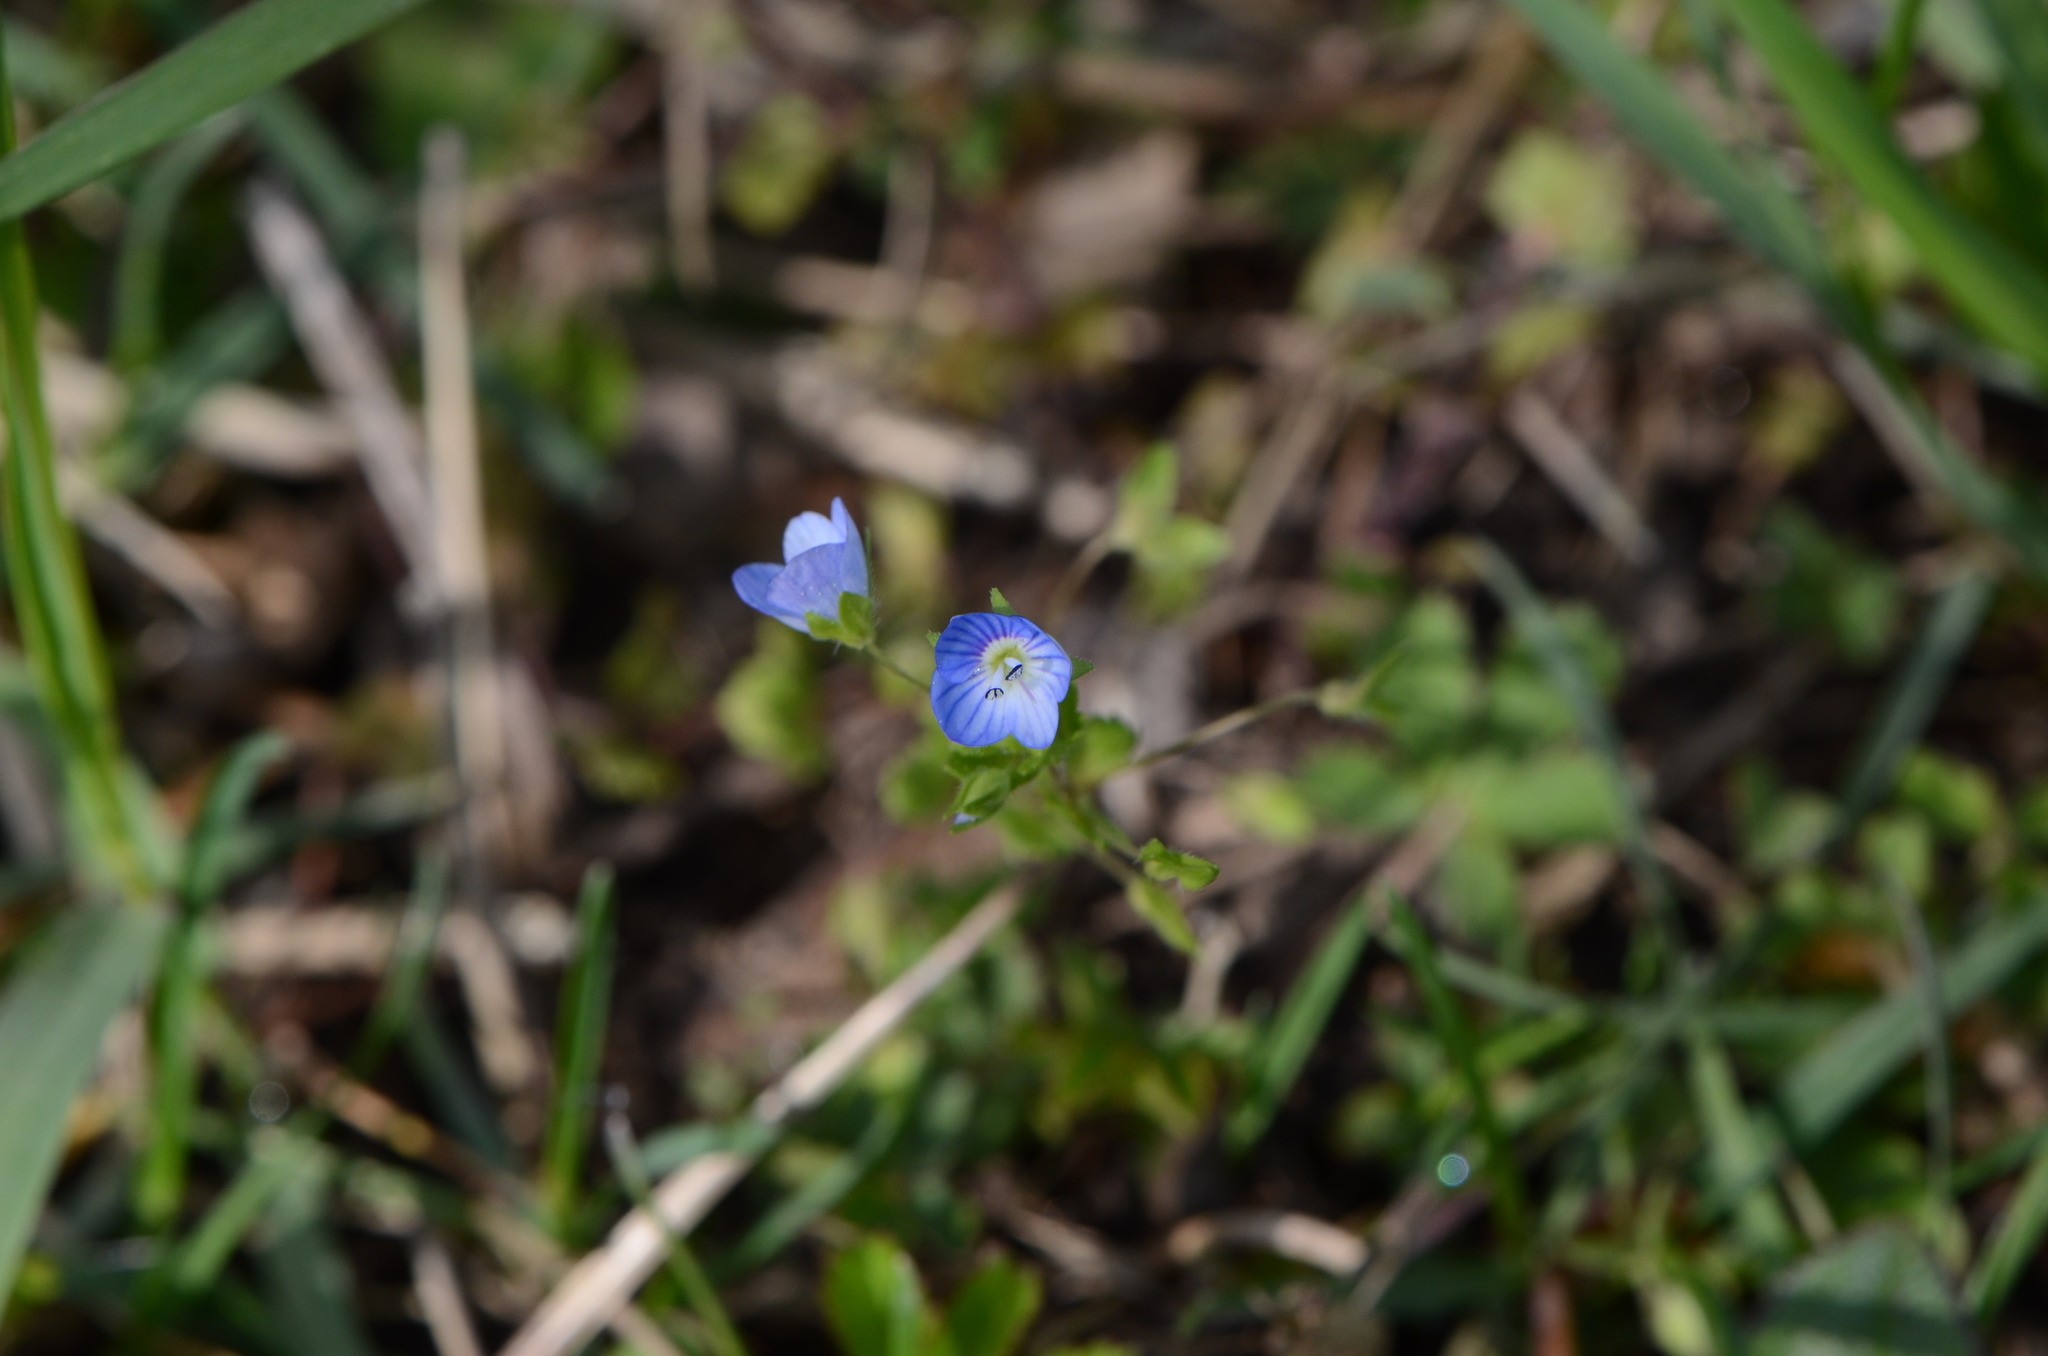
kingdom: Plantae
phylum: Tracheophyta
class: Magnoliopsida
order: Lamiales
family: Plantaginaceae
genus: Veronica
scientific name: Veronica persica
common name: Common field-speedwell
